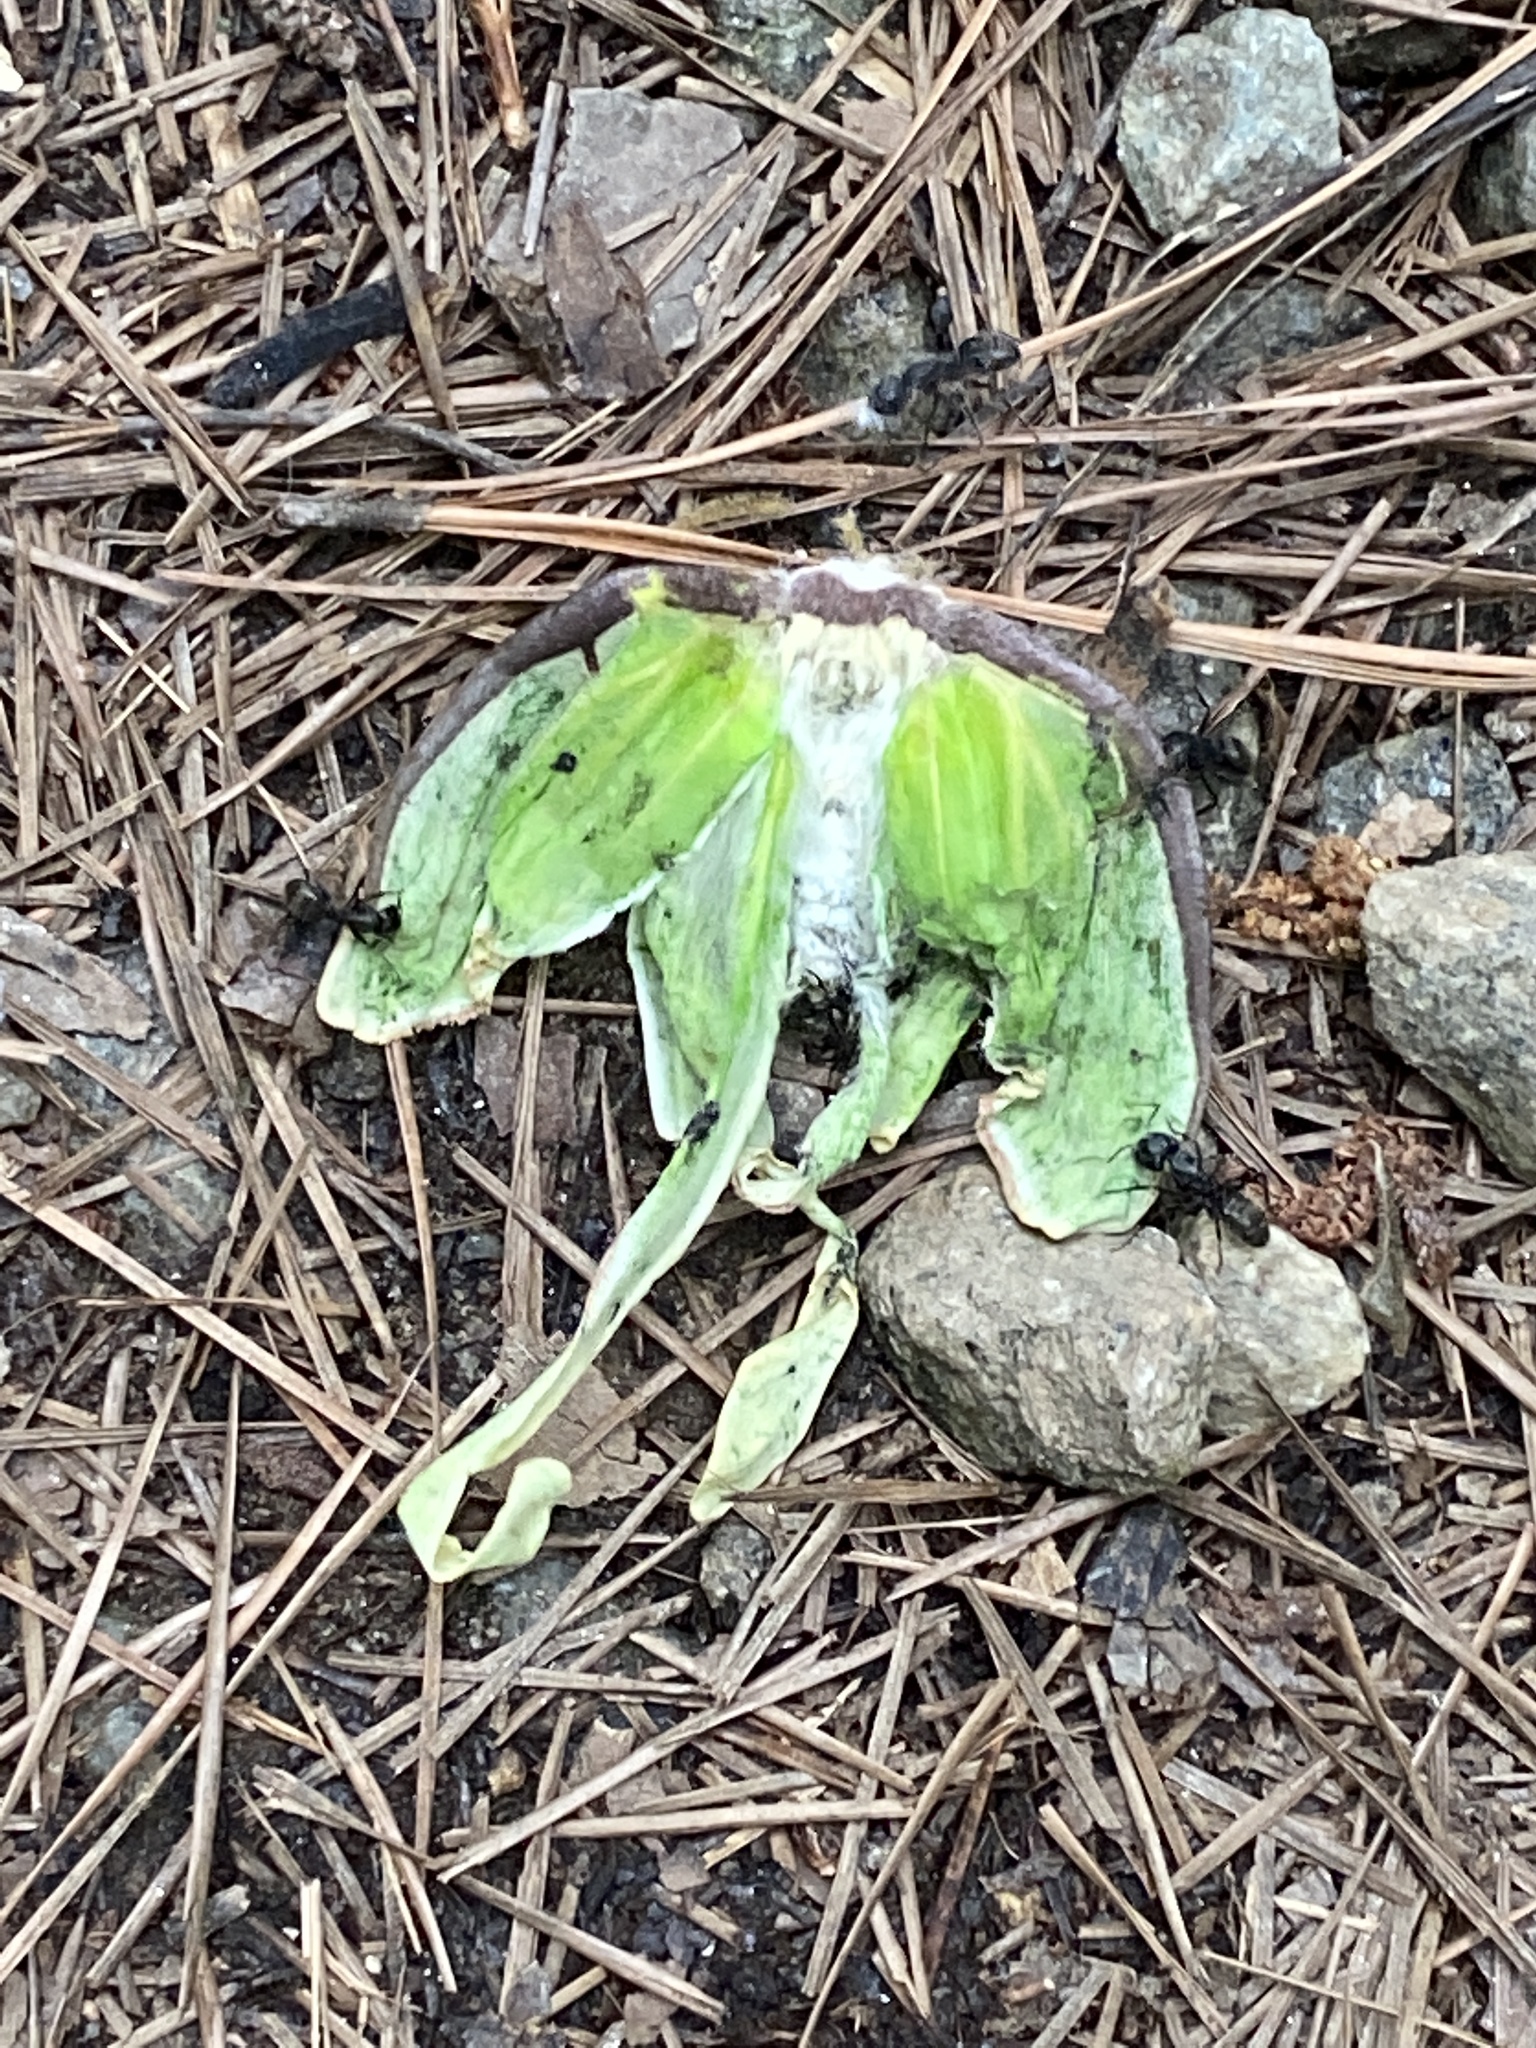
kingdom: Animalia
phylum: Arthropoda
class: Insecta
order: Lepidoptera
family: Saturniidae
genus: Actias
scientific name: Actias luna
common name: Luna moth
